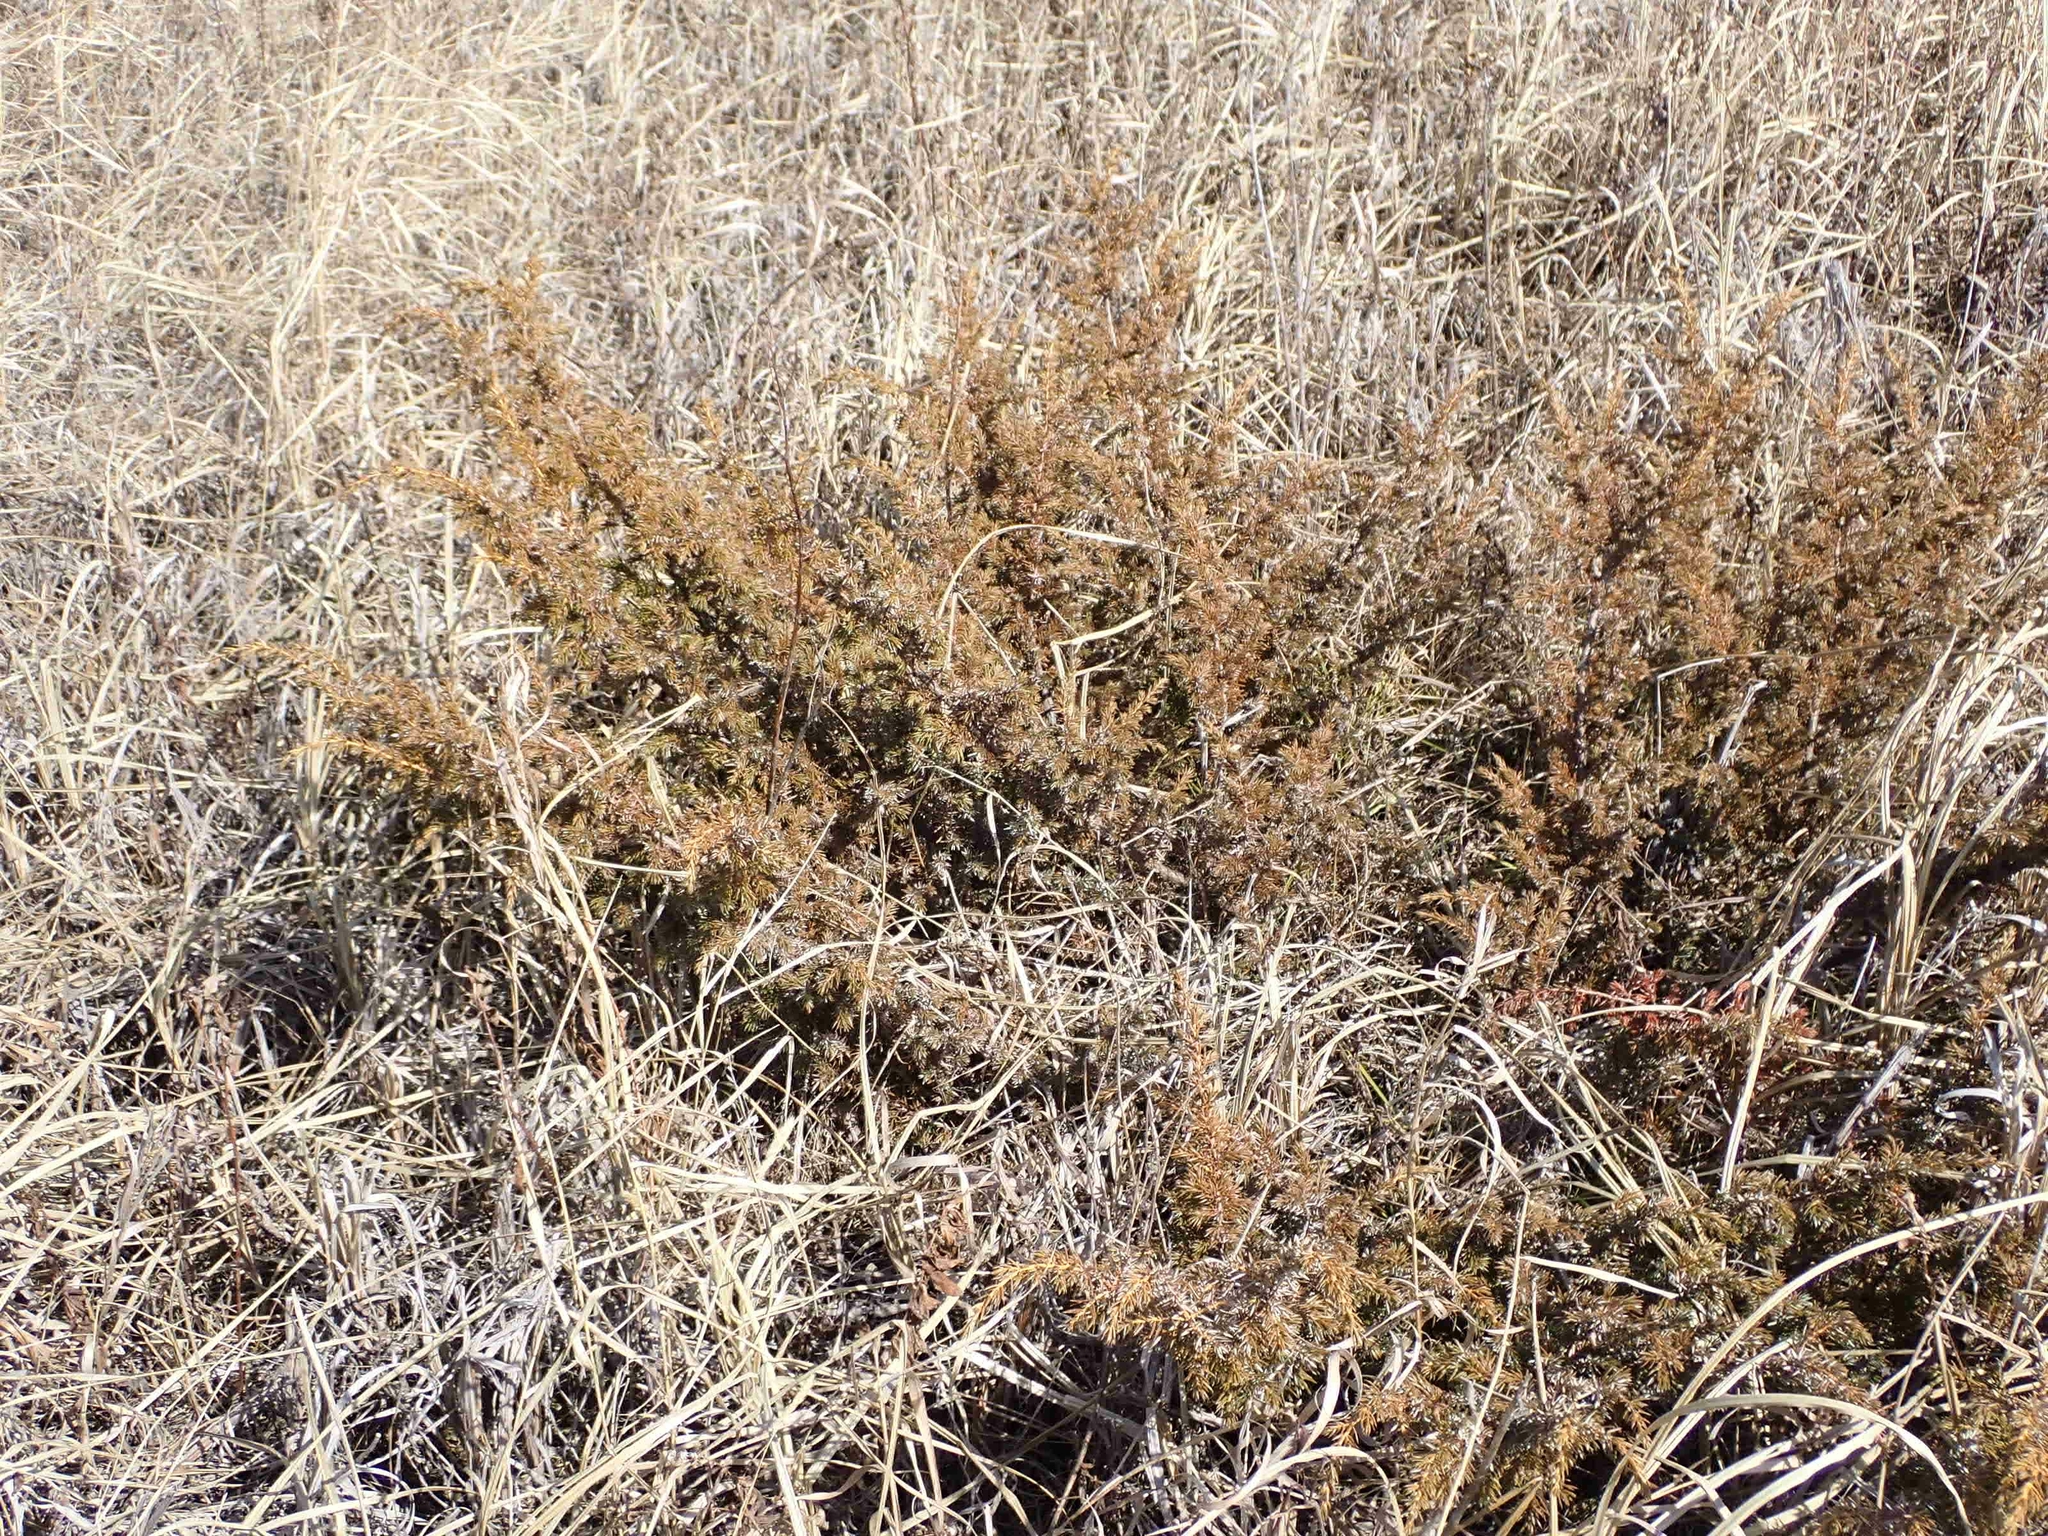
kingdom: Plantae
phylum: Tracheophyta
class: Pinopsida
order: Pinales
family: Cupressaceae
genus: Juniperus
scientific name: Juniperus communis
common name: Common juniper
